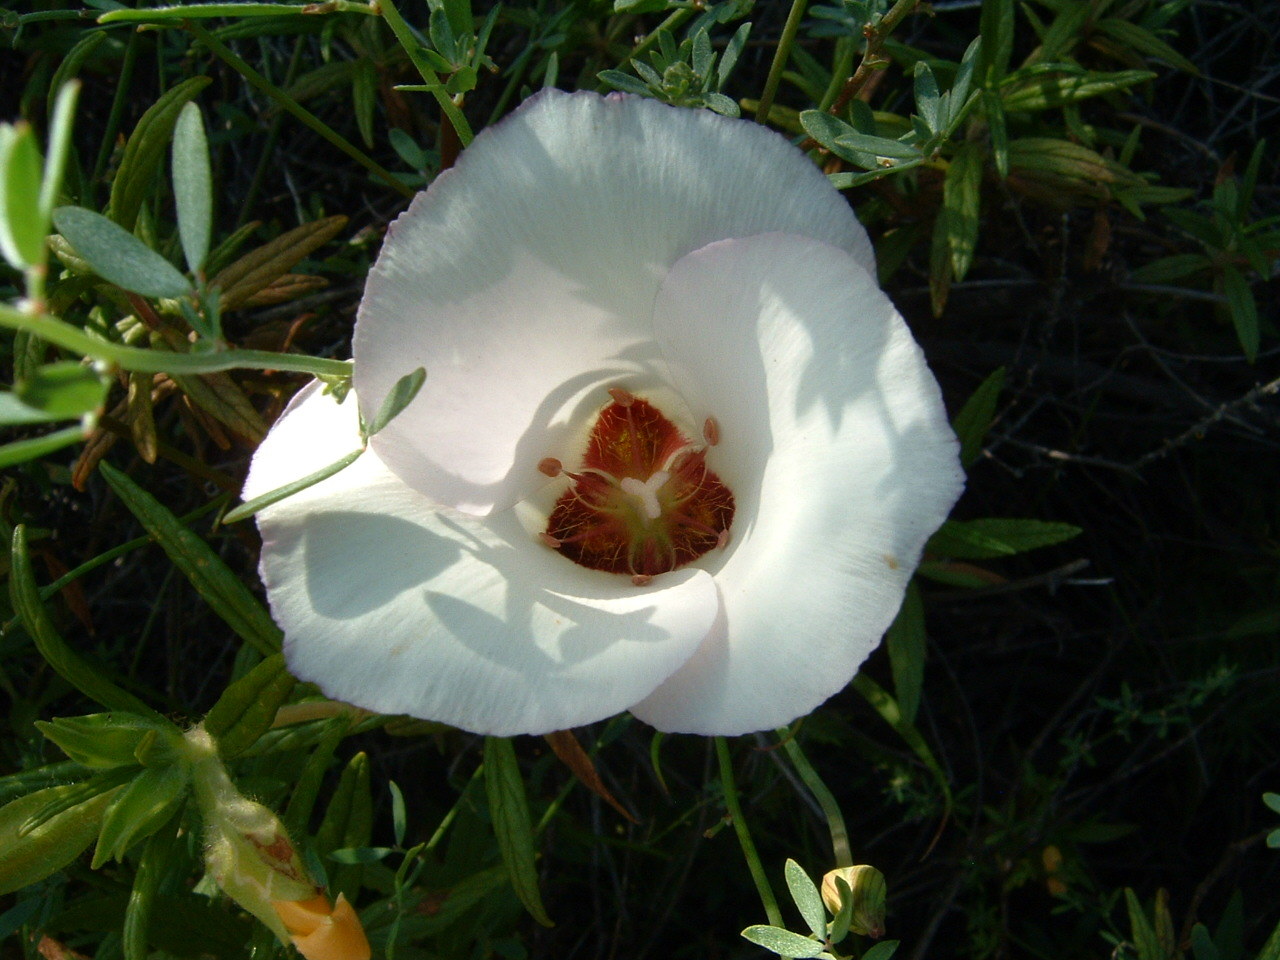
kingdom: Plantae
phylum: Tracheophyta
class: Liliopsida
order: Liliales
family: Liliaceae
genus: Calochortus
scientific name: Calochortus catalinae
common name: Catalina mariposa-lily
